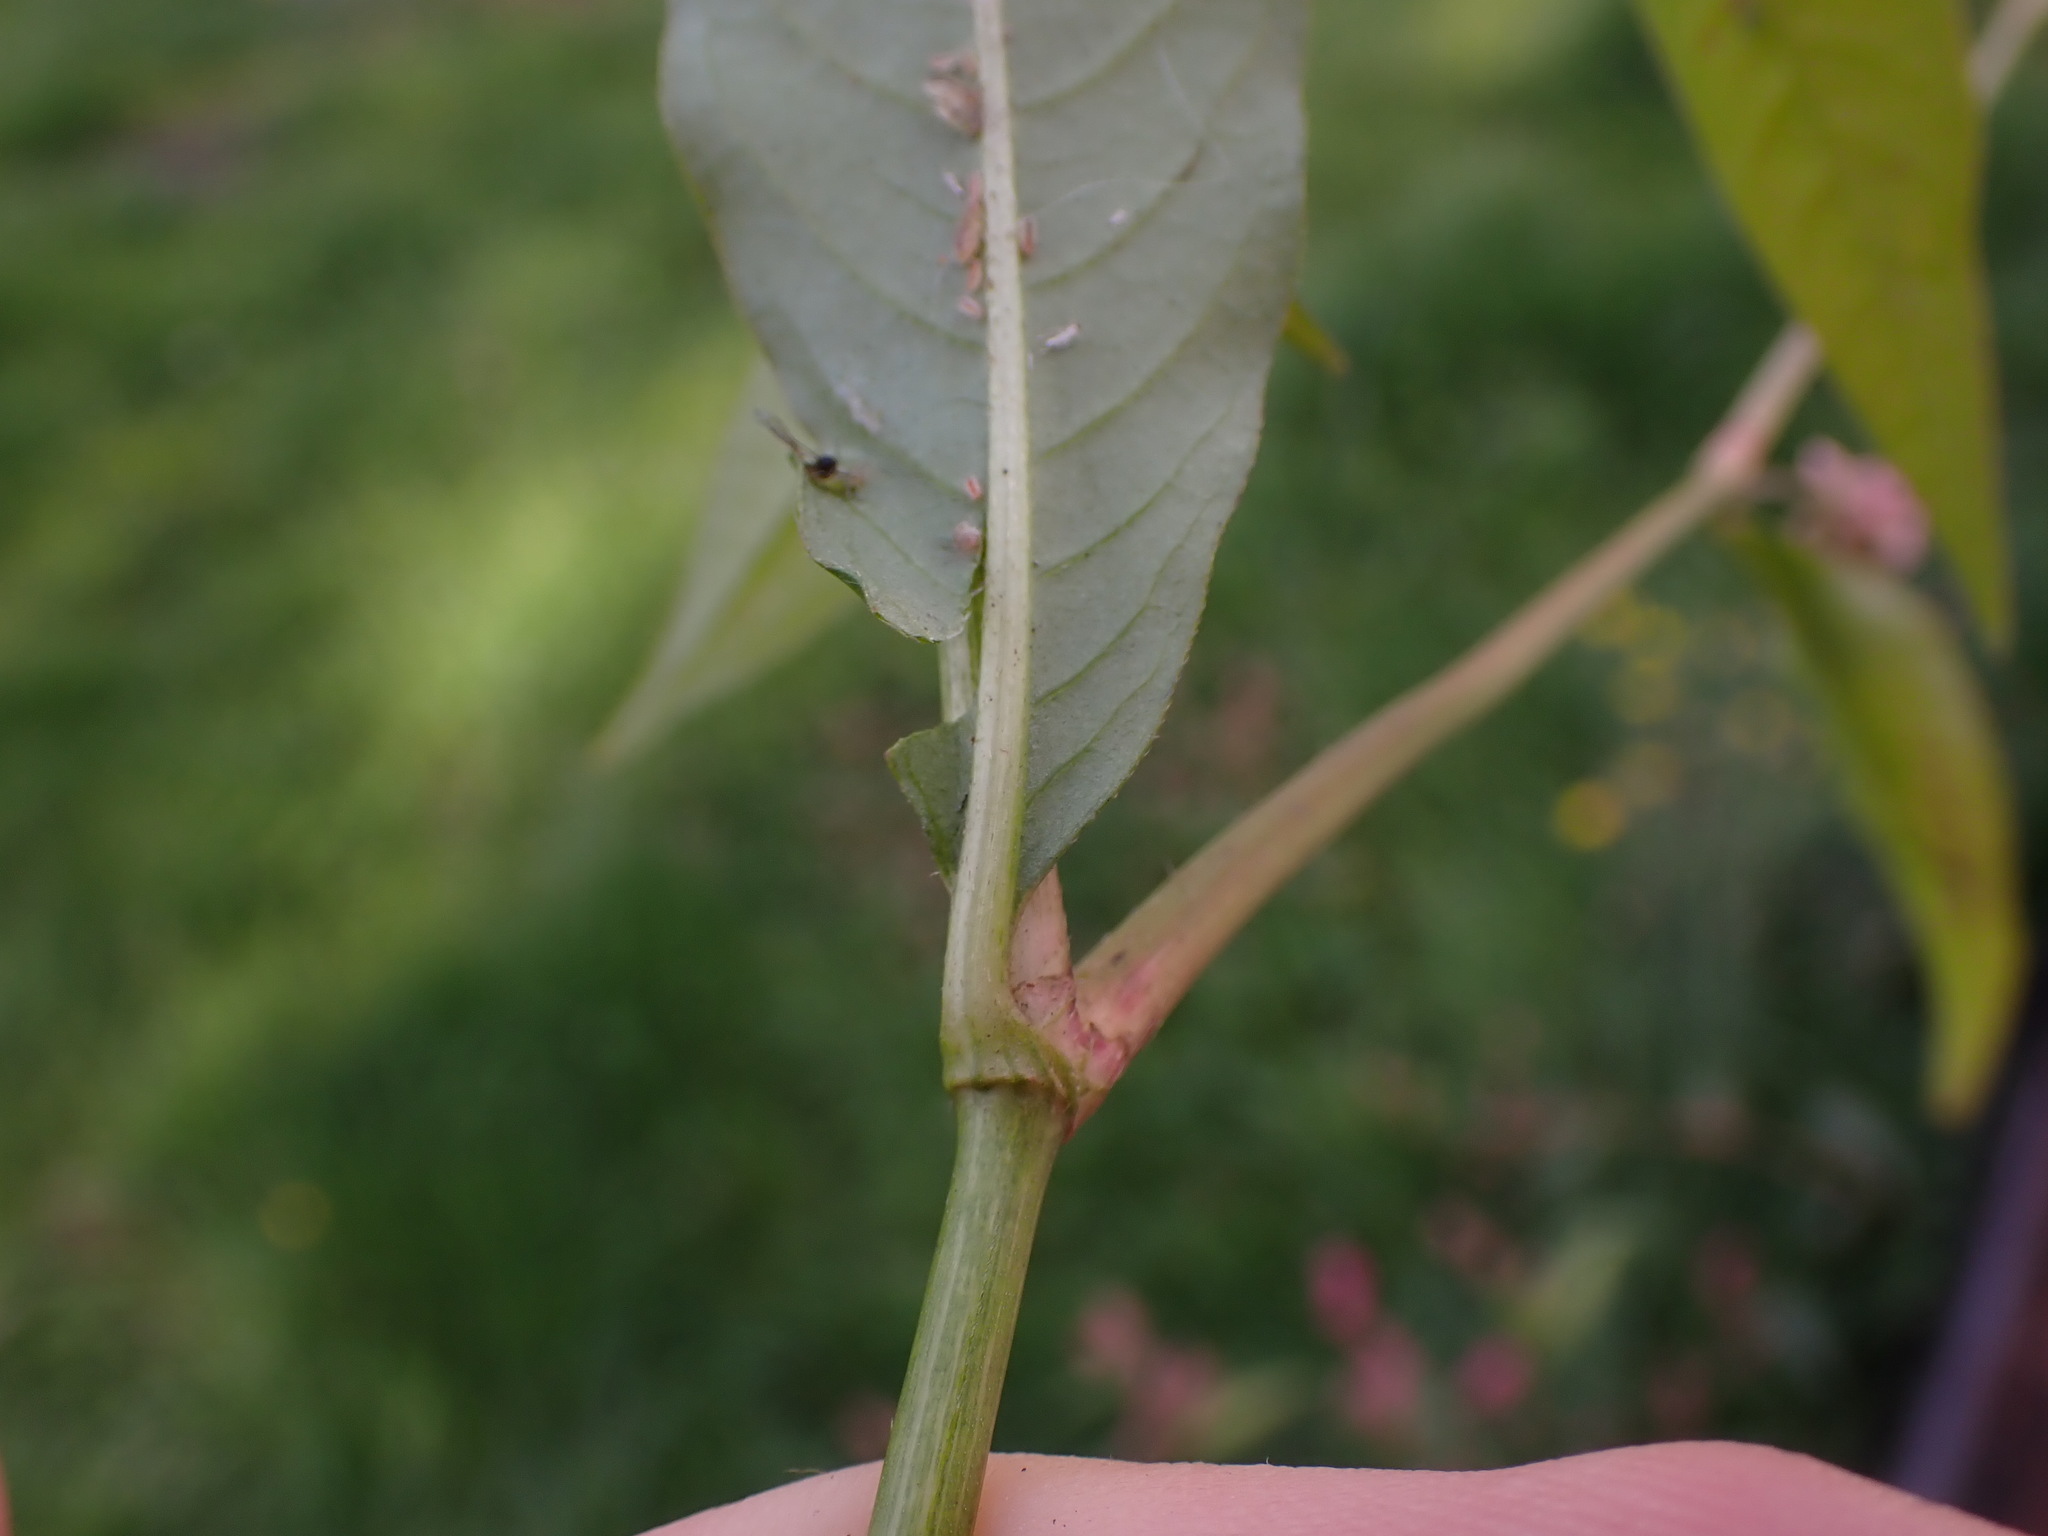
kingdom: Plantae
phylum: Tracheophyta
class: Magnoliopsida
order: Caryophyllales
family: Polygonaceae
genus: Persicaria
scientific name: Persicaria maculosa
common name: Redshank
